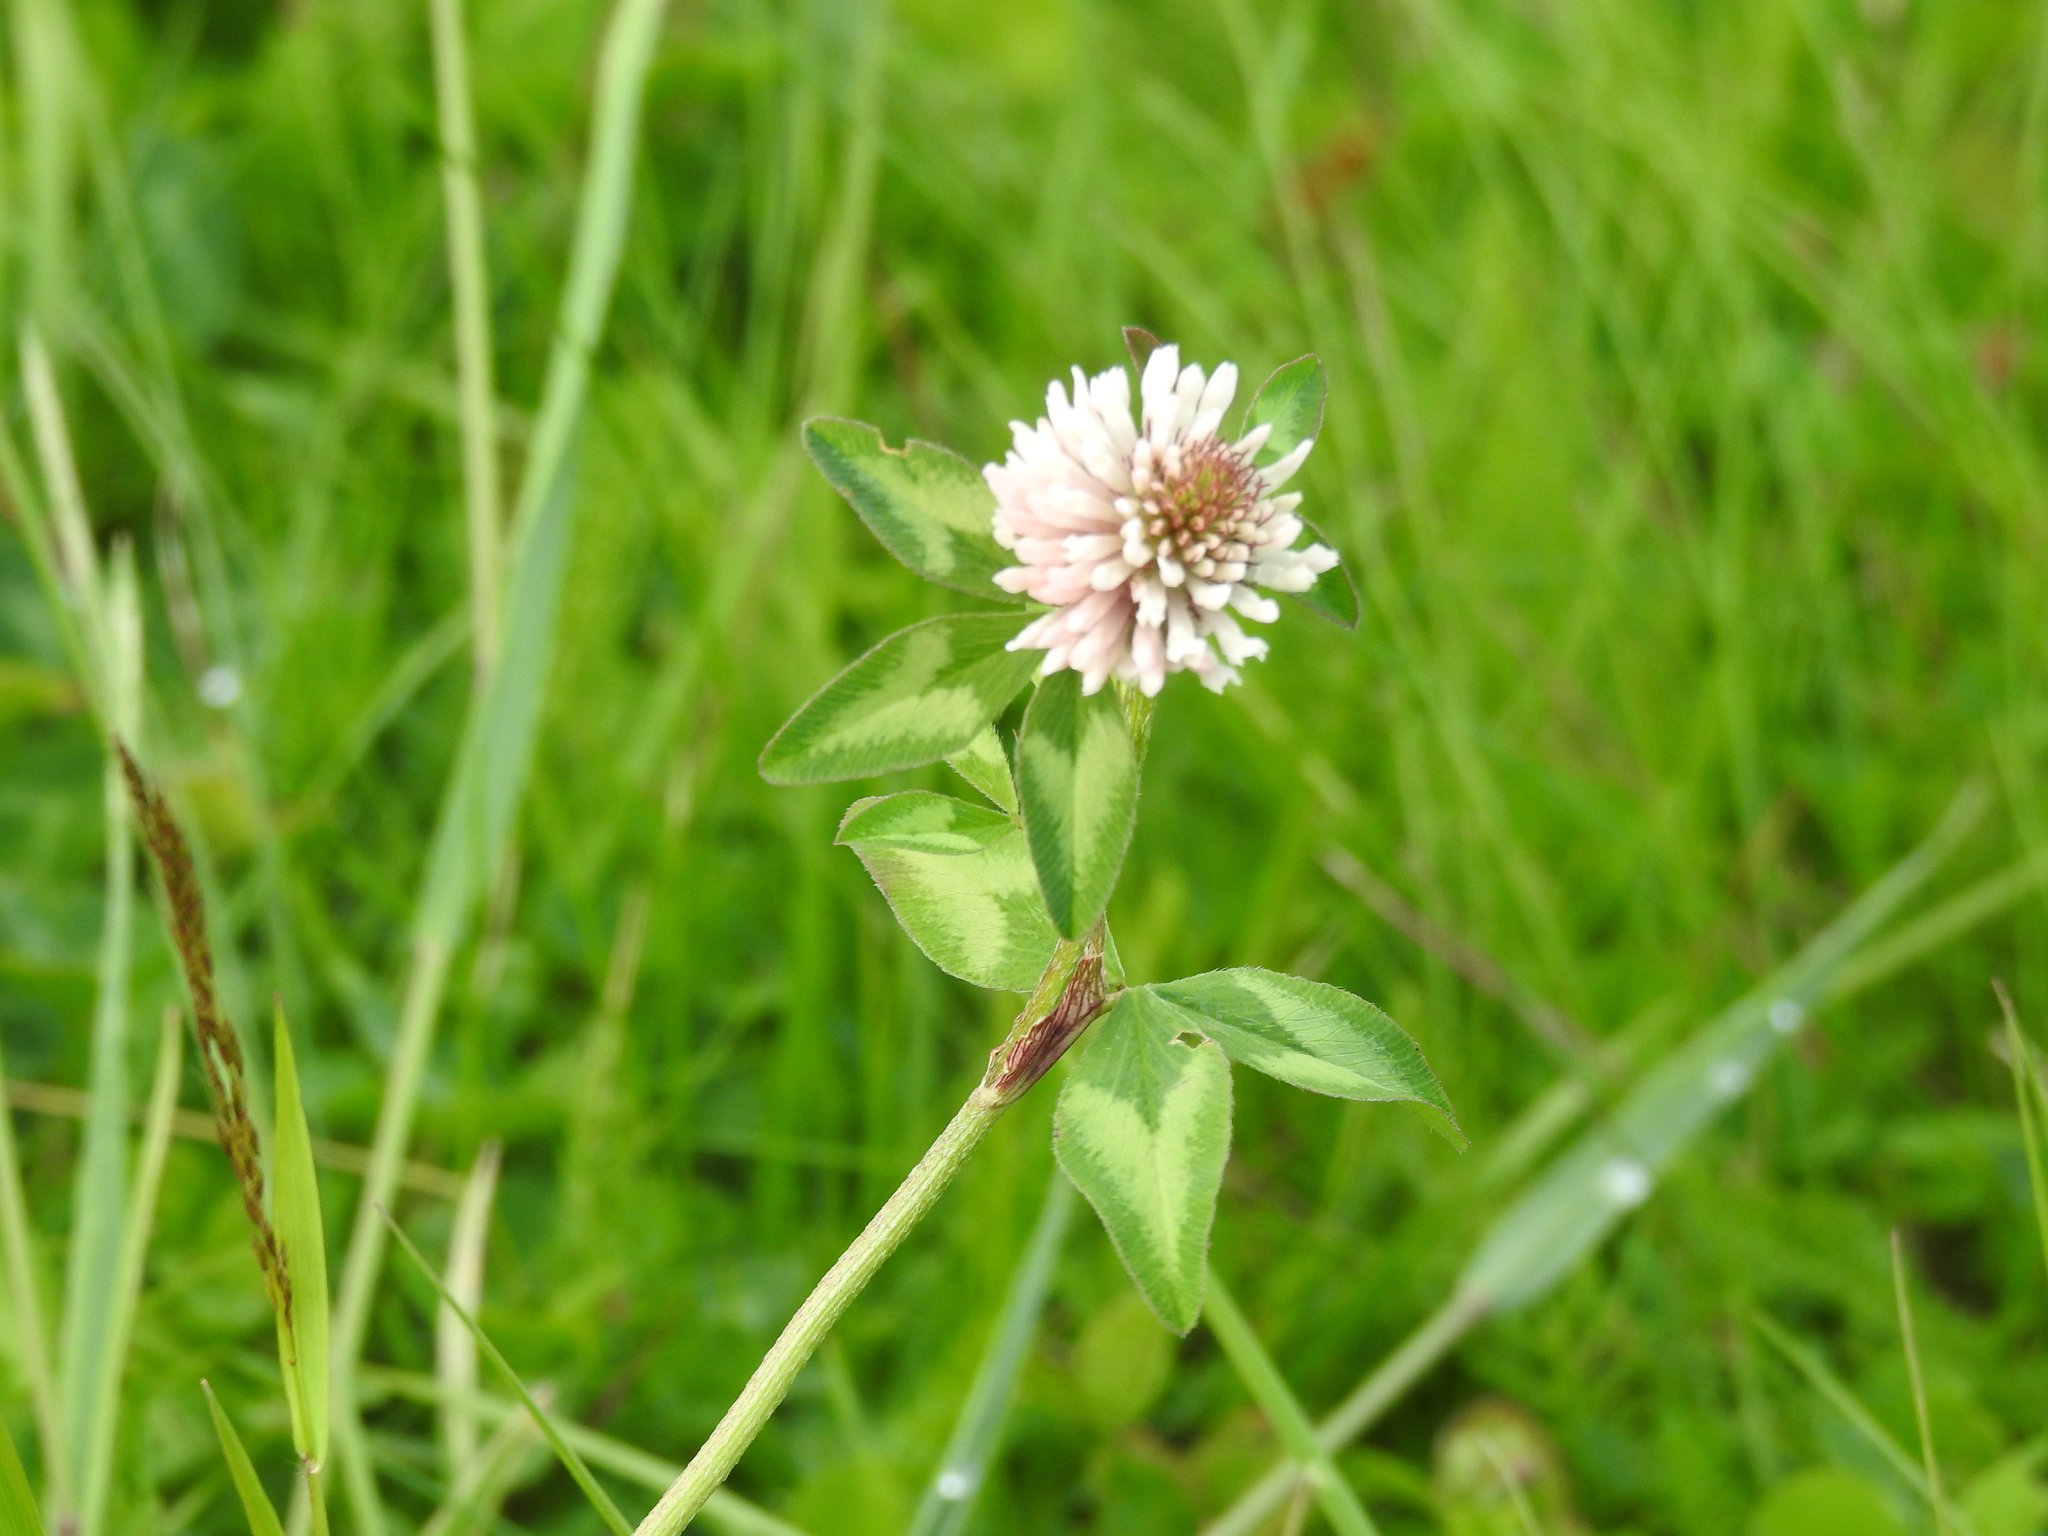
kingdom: Plantae
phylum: Tracheophyta
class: Magnoliopsida
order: Fabales
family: Fabaceae
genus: Trifolium
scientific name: Trifolium pratense
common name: Red clover
